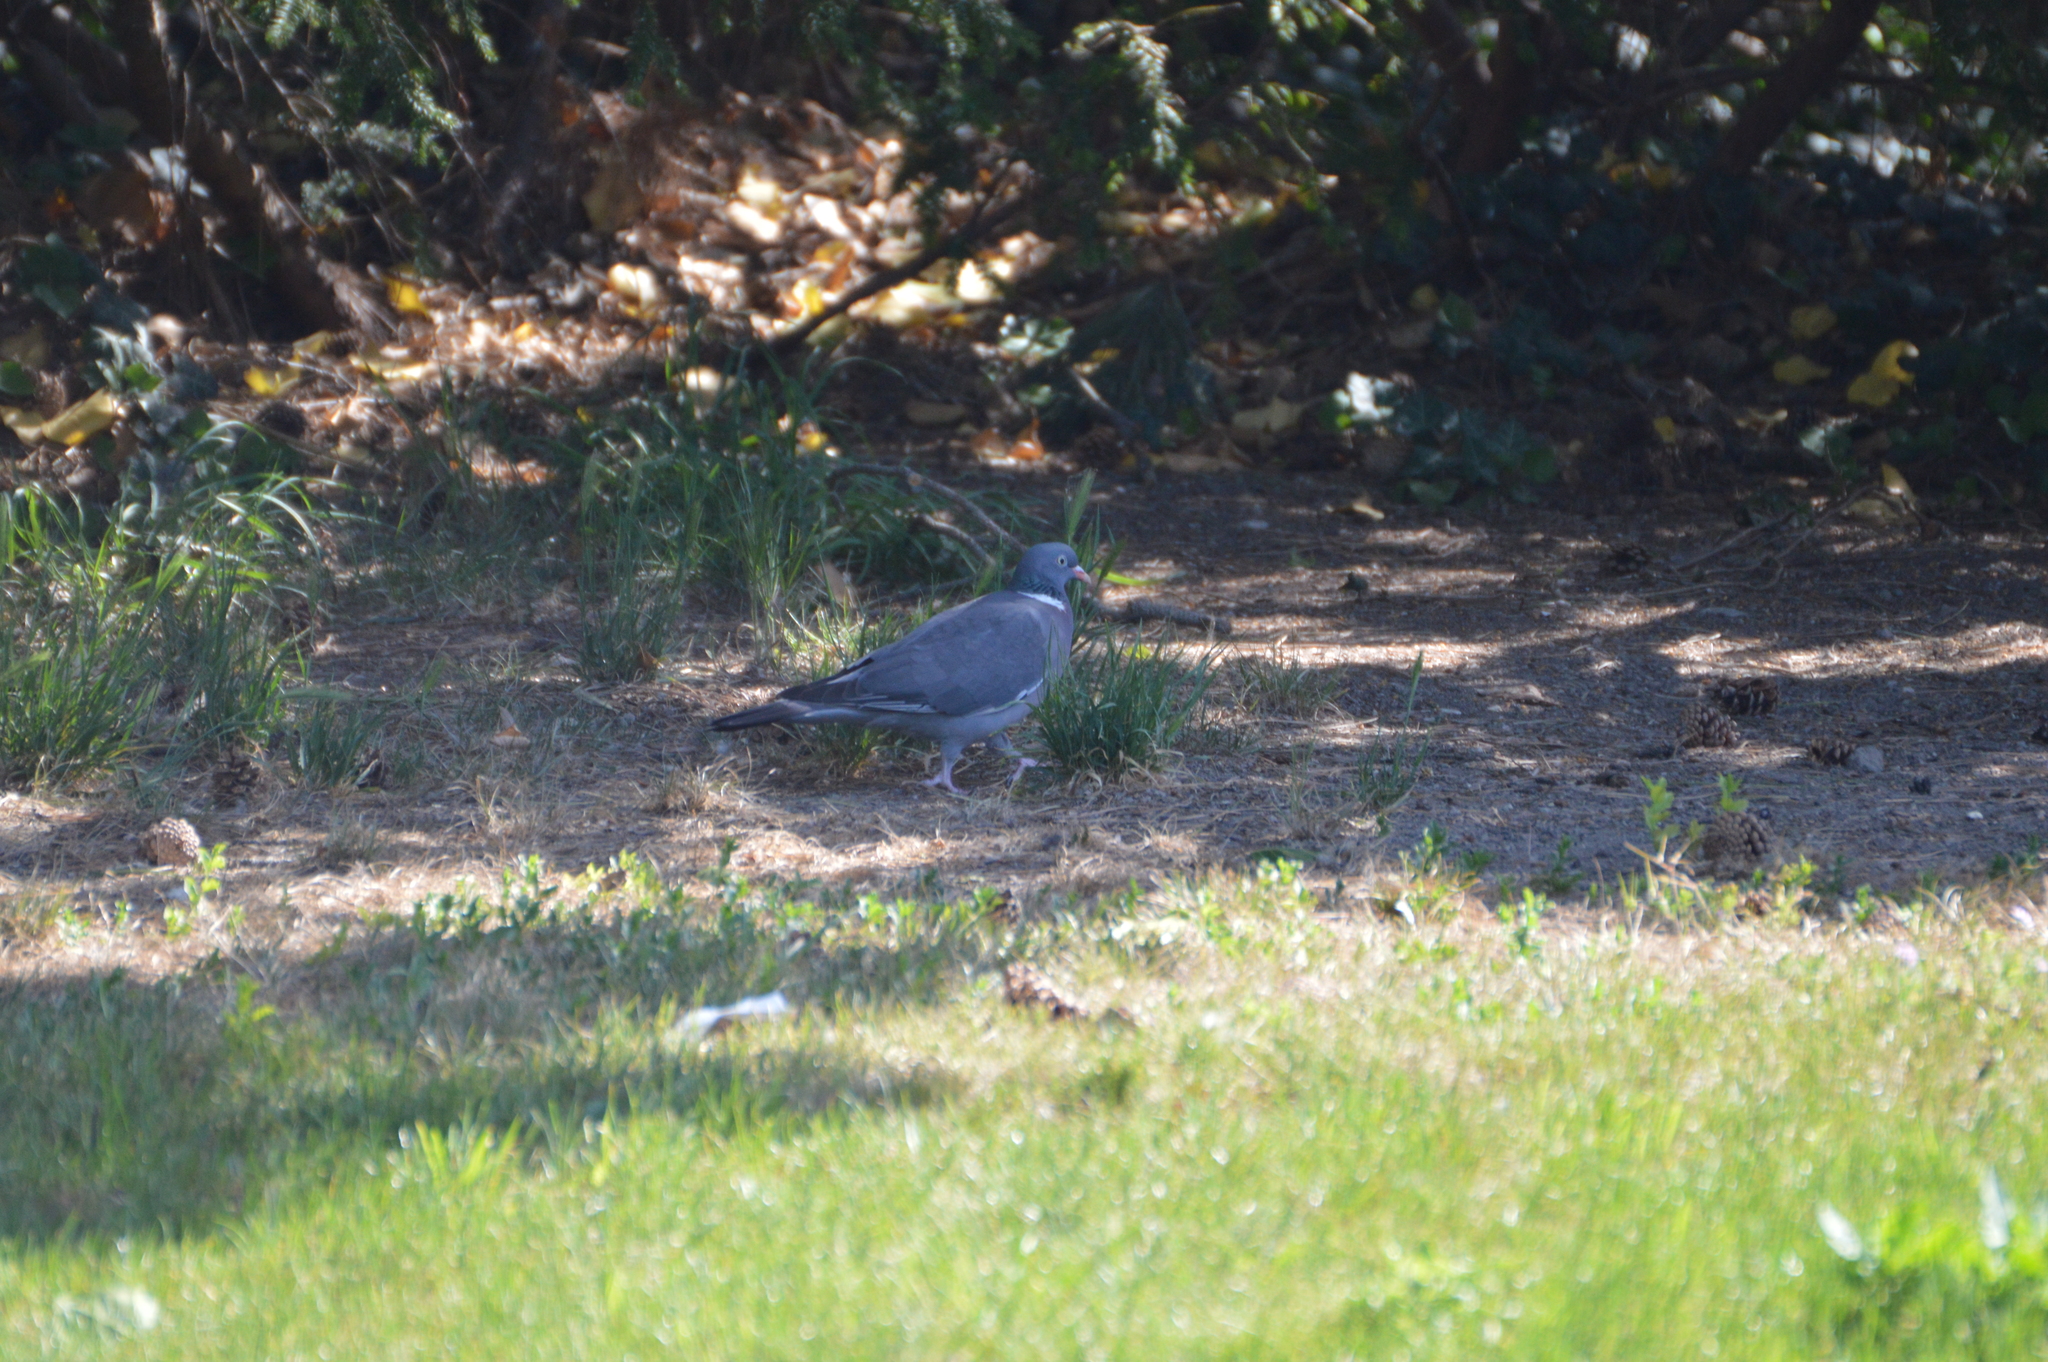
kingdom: Animalia
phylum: Chordata
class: Aves
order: Columbiformes
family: Columbidae
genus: Columba
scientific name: Columba palumbus
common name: Common wood pigeon
